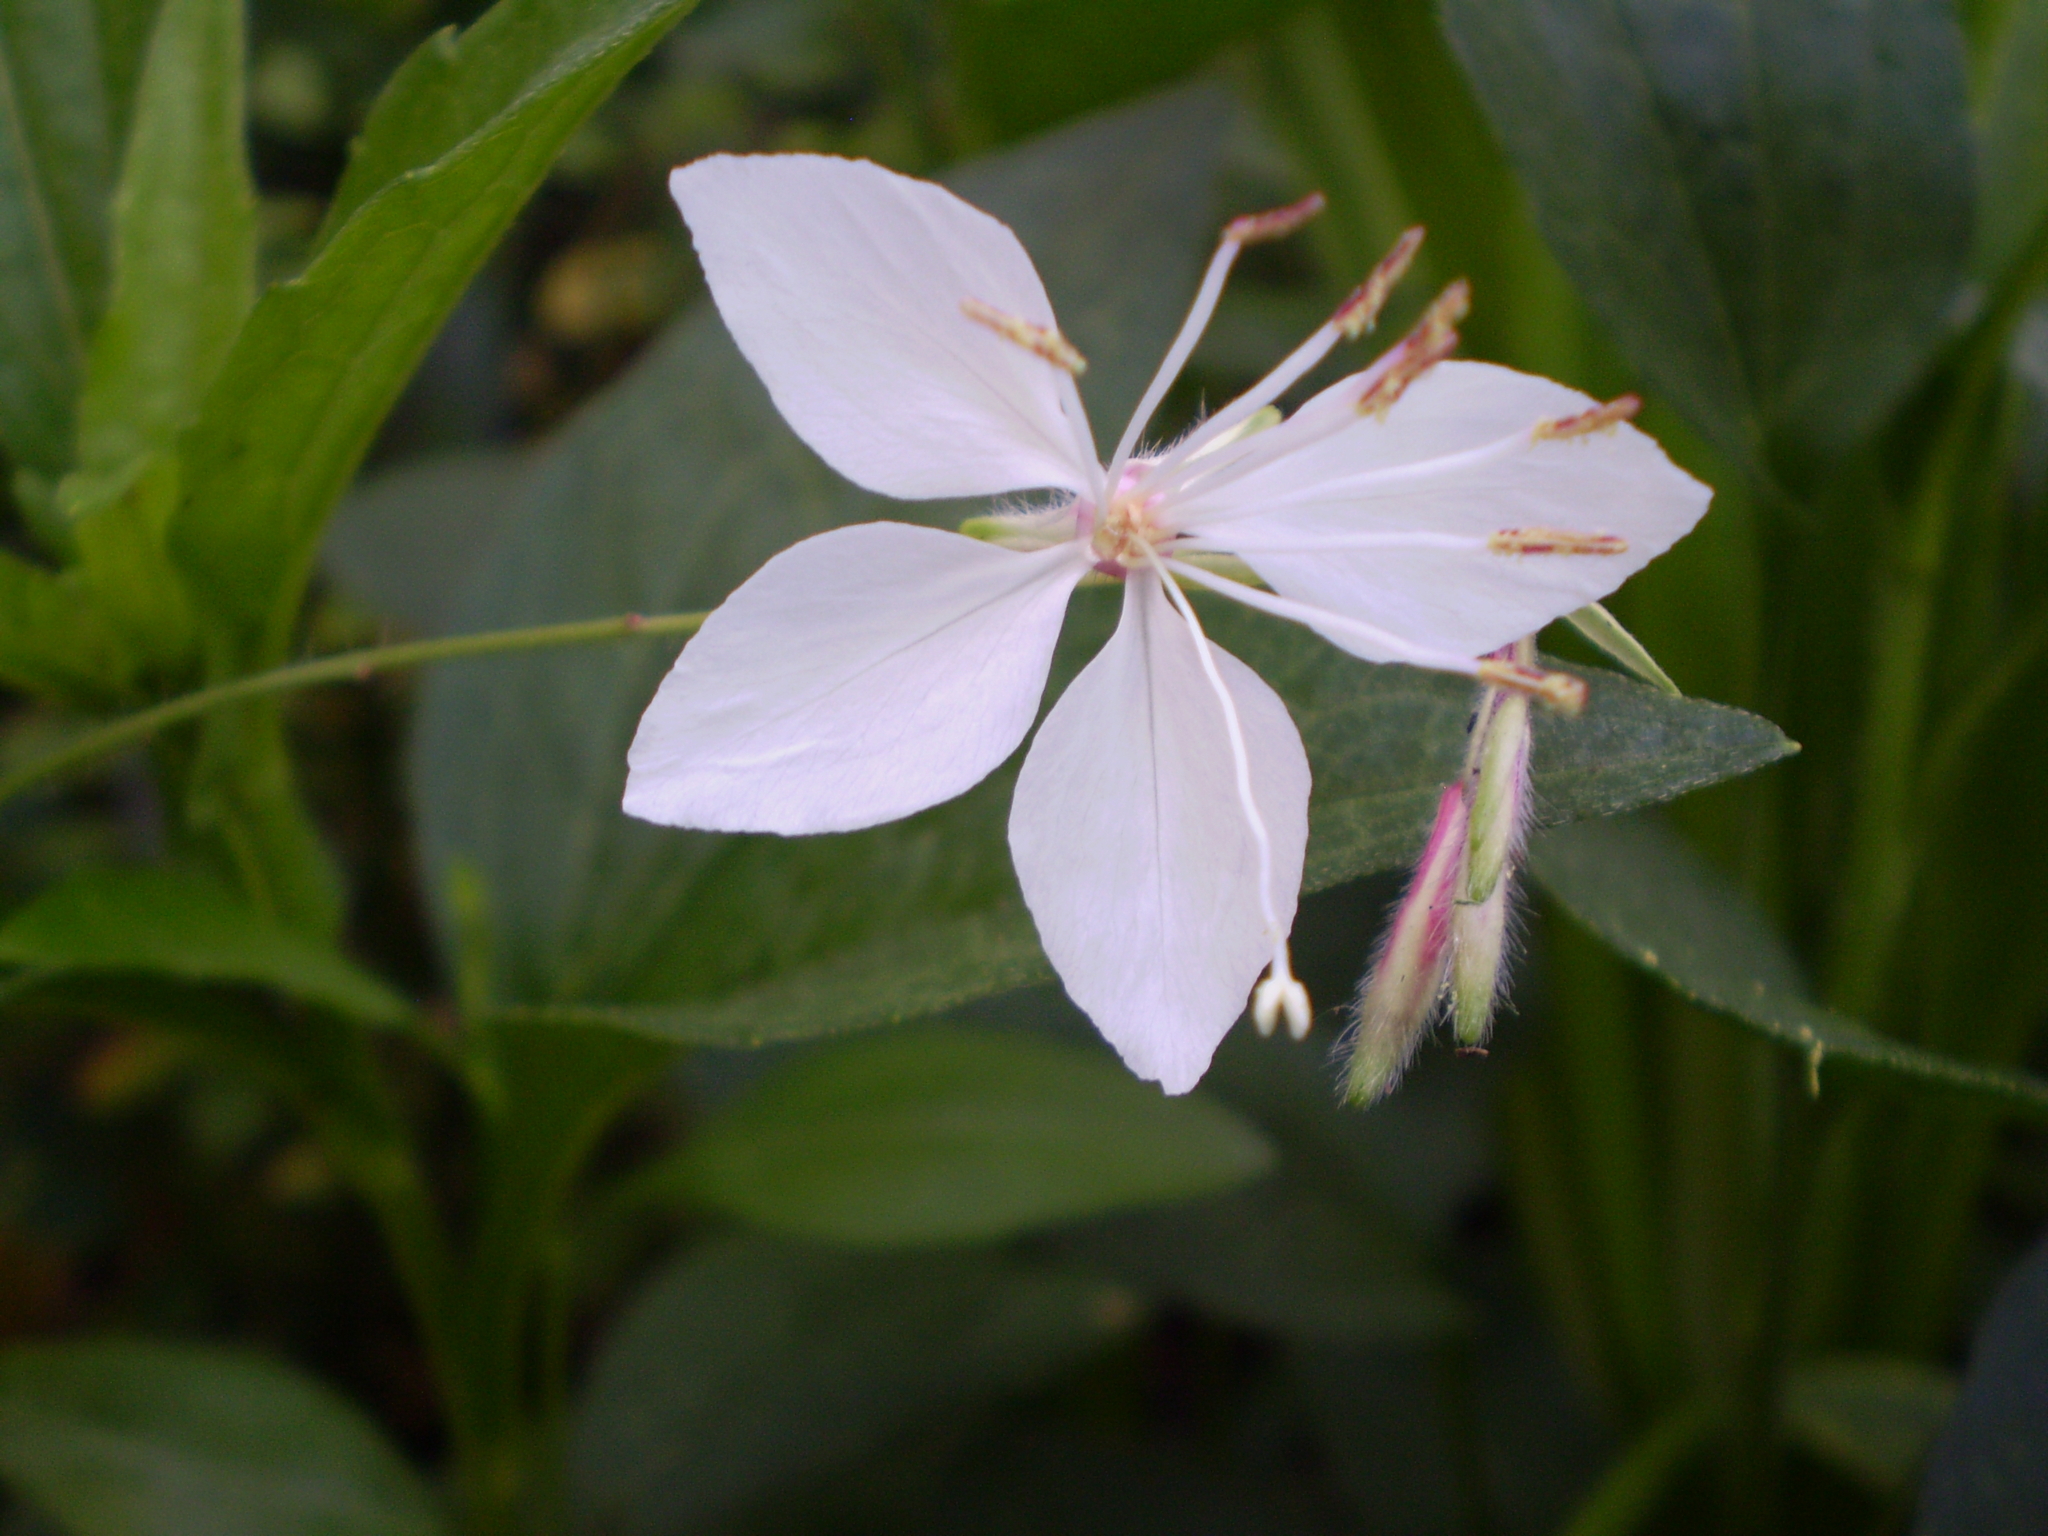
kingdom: Plantae
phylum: Tracheophyta
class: Magnoliopsida
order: Myrtales
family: Onagraceae
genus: Oenothera
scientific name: Oenothera lindheimeri
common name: Lindheimer's beeblossom
